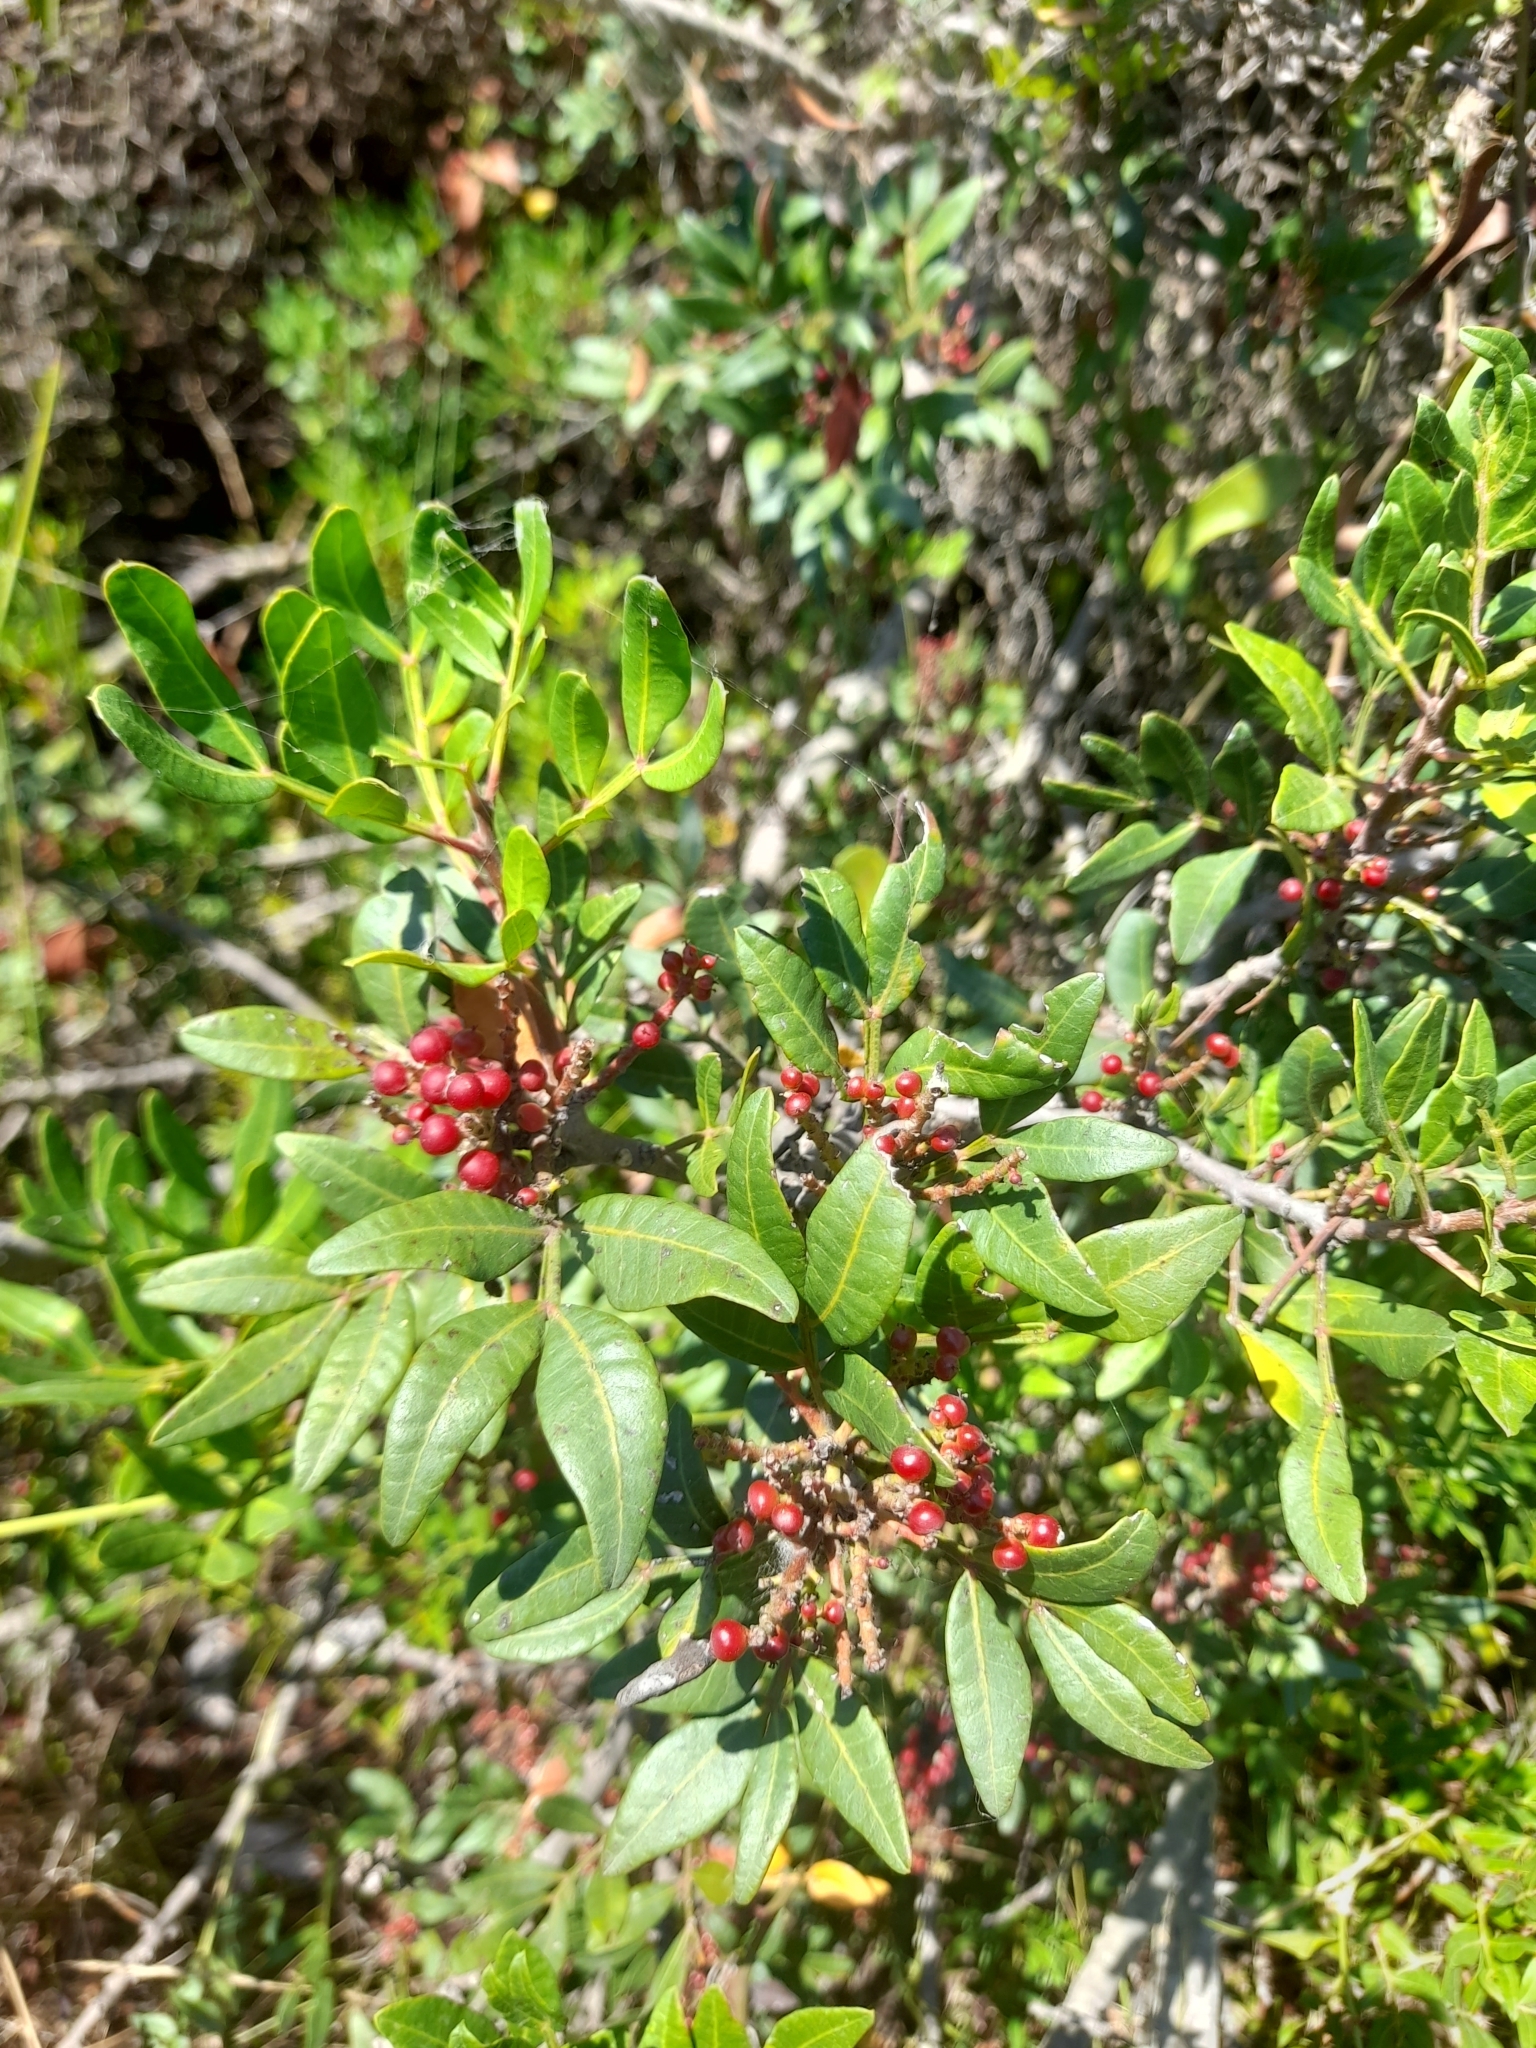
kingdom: Plantae
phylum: Tracheophyta
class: Magnoliopsida
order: Sapindales
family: Anacardiaceae
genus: Pistacia
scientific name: Pistacia lentiscus
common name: Lentisk
